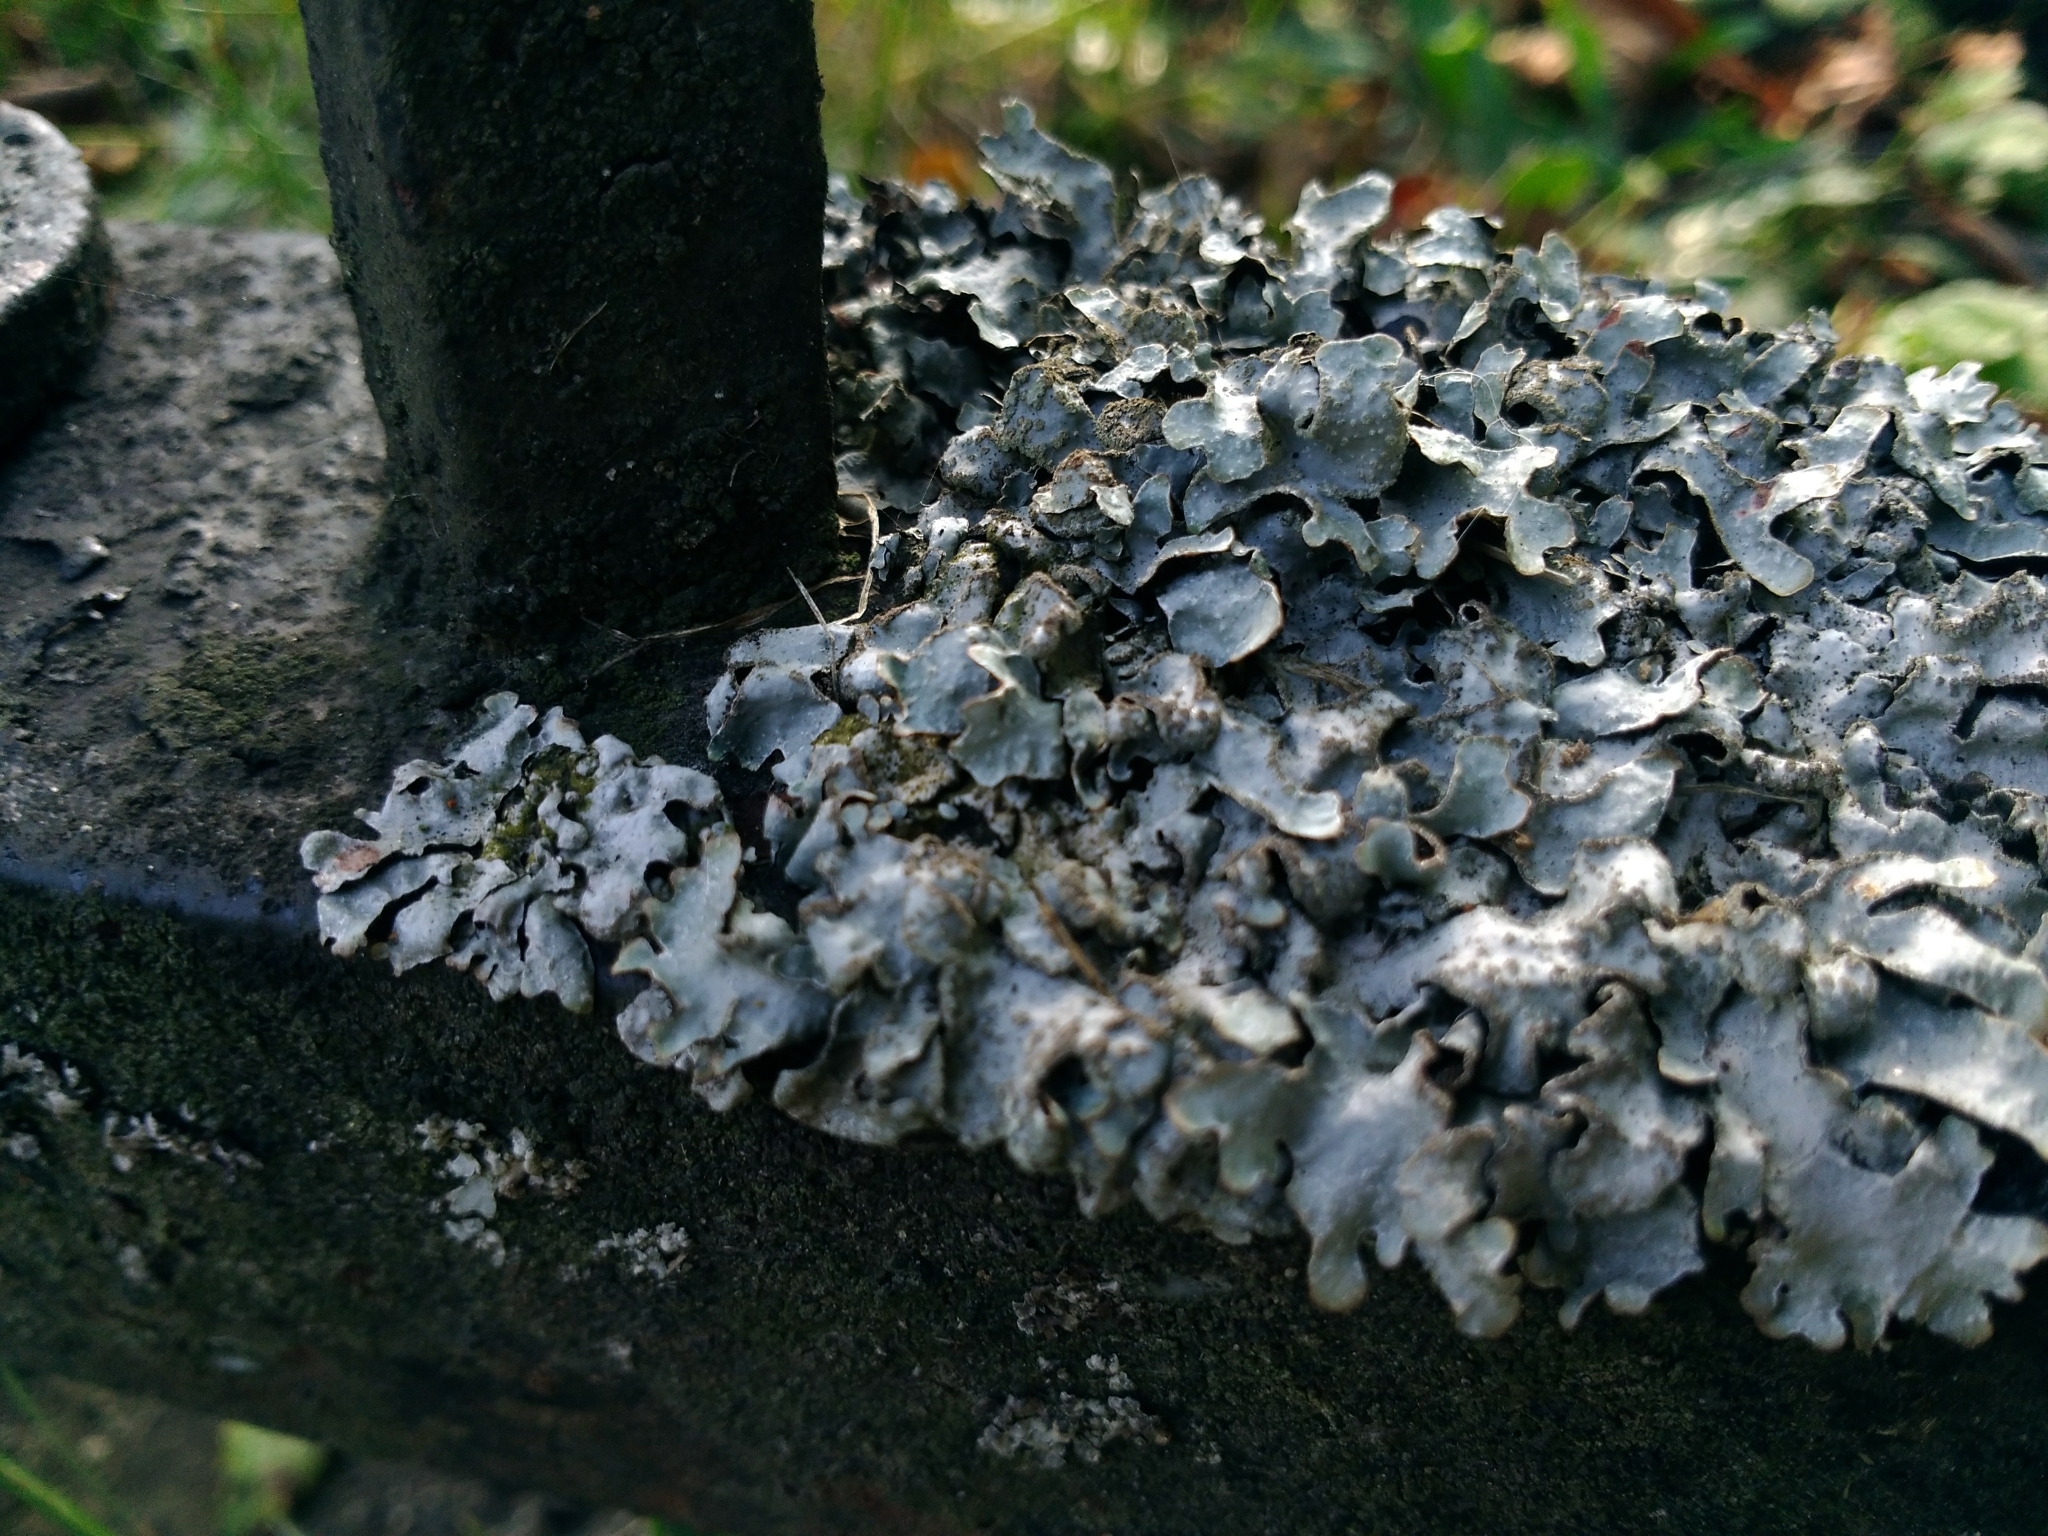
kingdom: Fungi
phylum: Ascomycota
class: Lecanoromycetes
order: Lecanorales
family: Parmeliaceae
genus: Parmelia
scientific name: Parmelia sulcata
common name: Netted shield lichen
